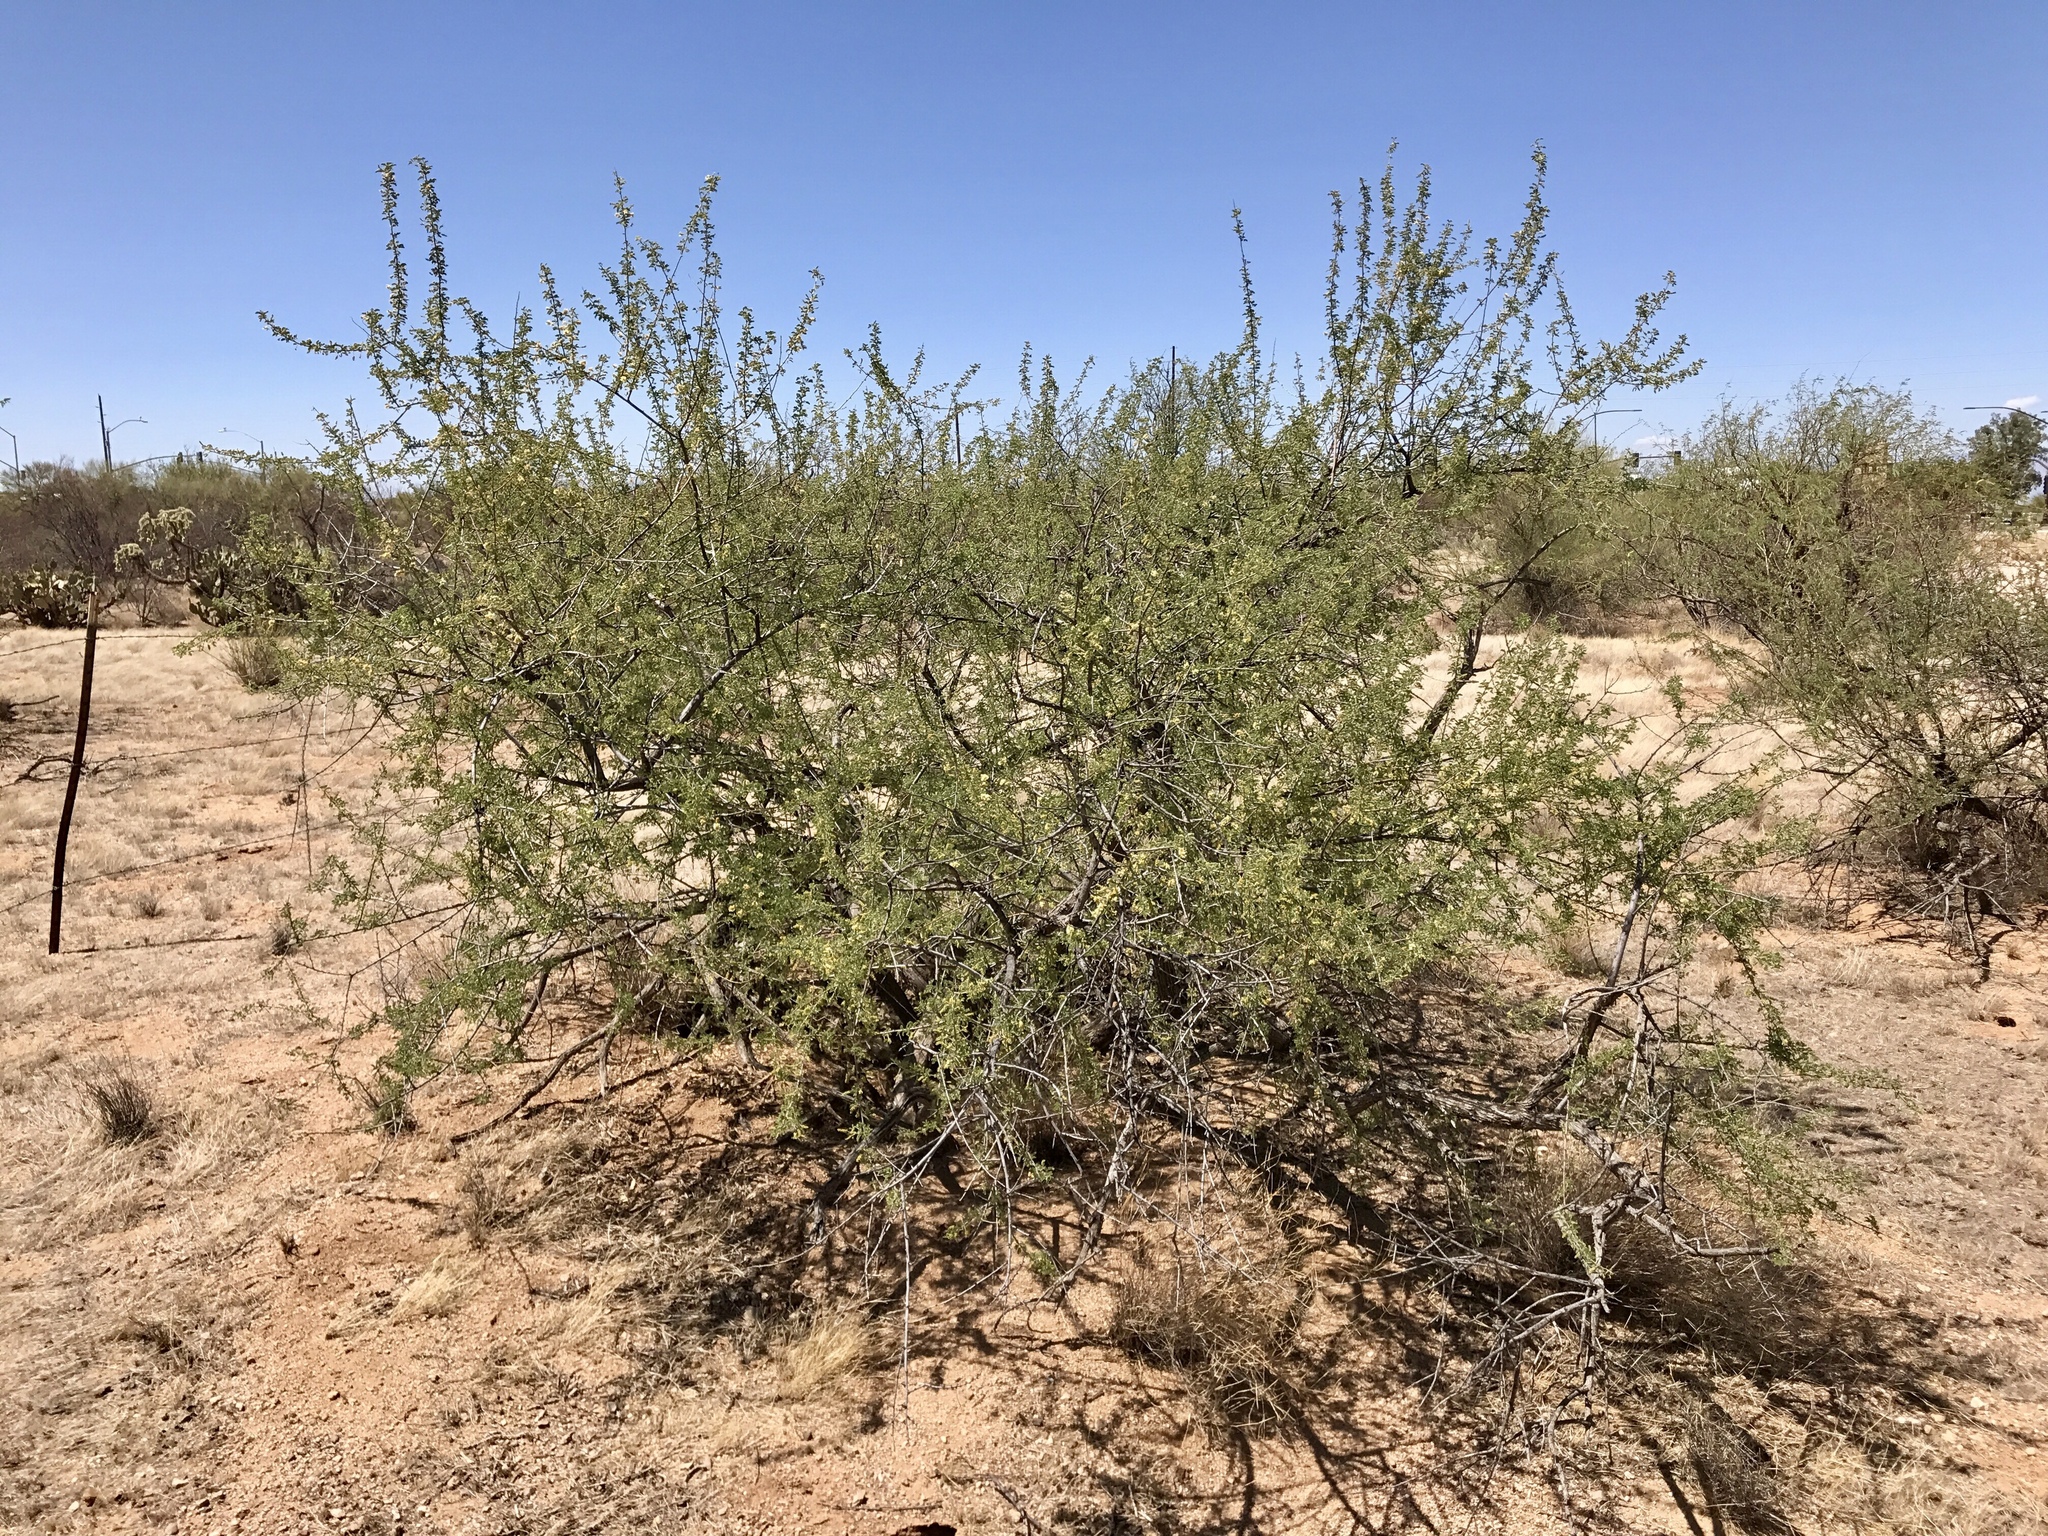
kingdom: Plantae
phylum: Tracheophyta
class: Magnoliopsida
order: Fabales
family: Fabaceae
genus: Senegalia
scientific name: Senegalia greggii
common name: Texas-mimosa
